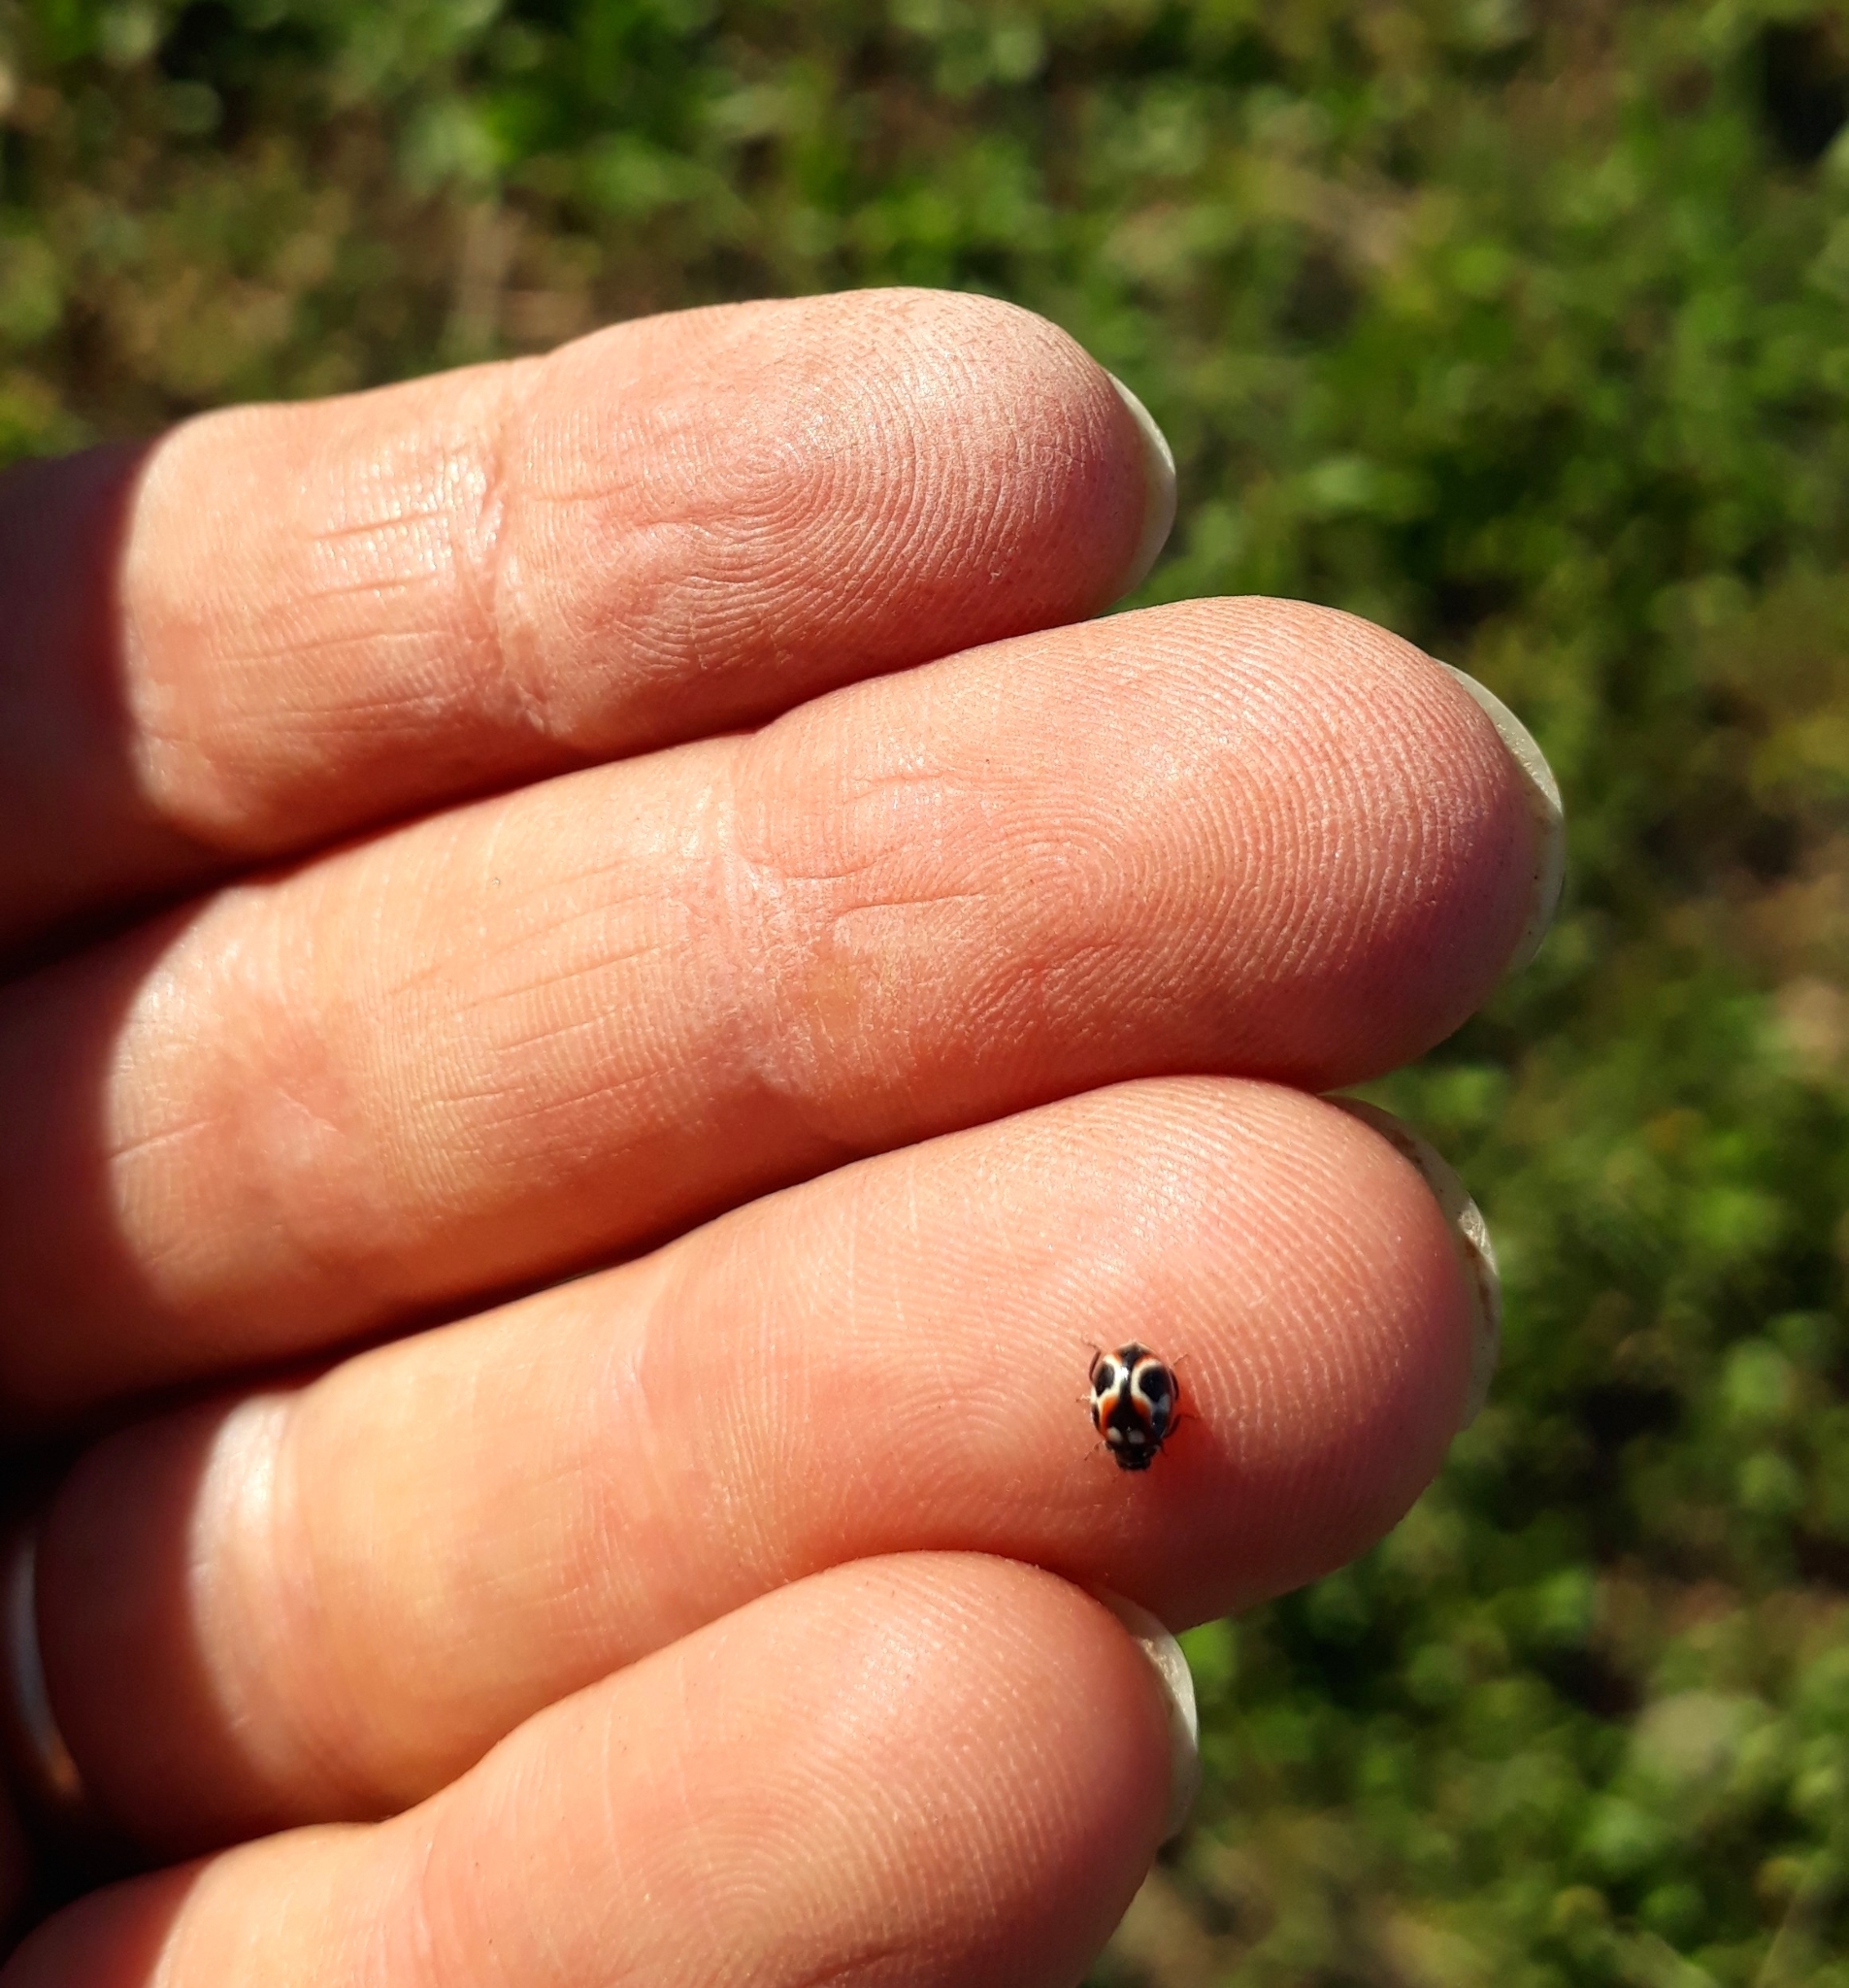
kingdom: Animalia
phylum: Arthropoda
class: Insecta
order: Coleoptera
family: Coccinellidae
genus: Cycloneda
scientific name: Cycloneda ancoralis
